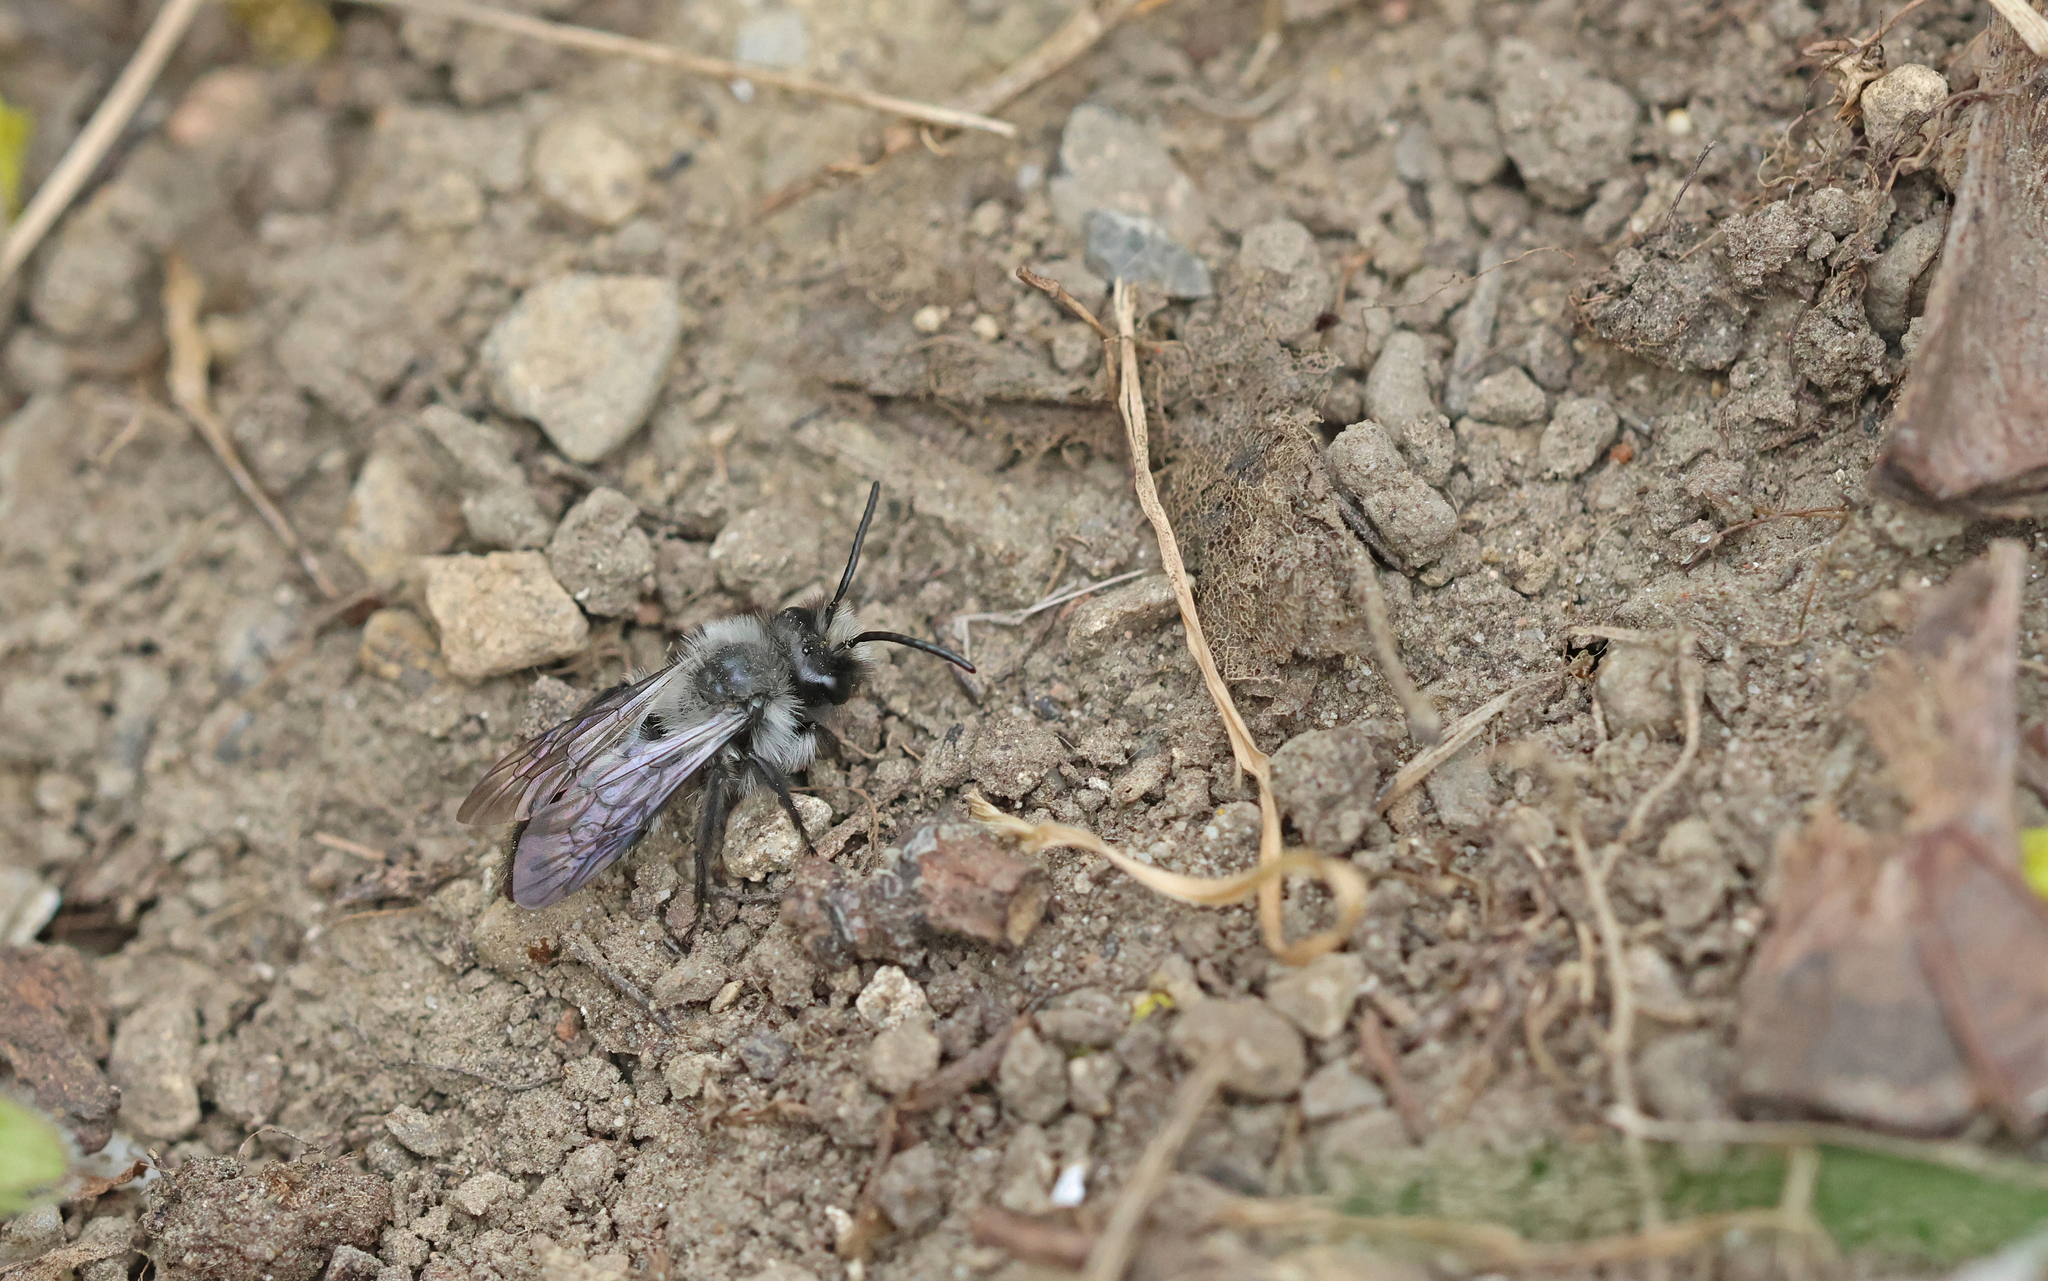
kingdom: Animalia
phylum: Arthropoda
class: Insecta
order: Hymenoptera
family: Andrenidae
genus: Andrena
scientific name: Andrena cineraria
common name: Ashy mining bee
